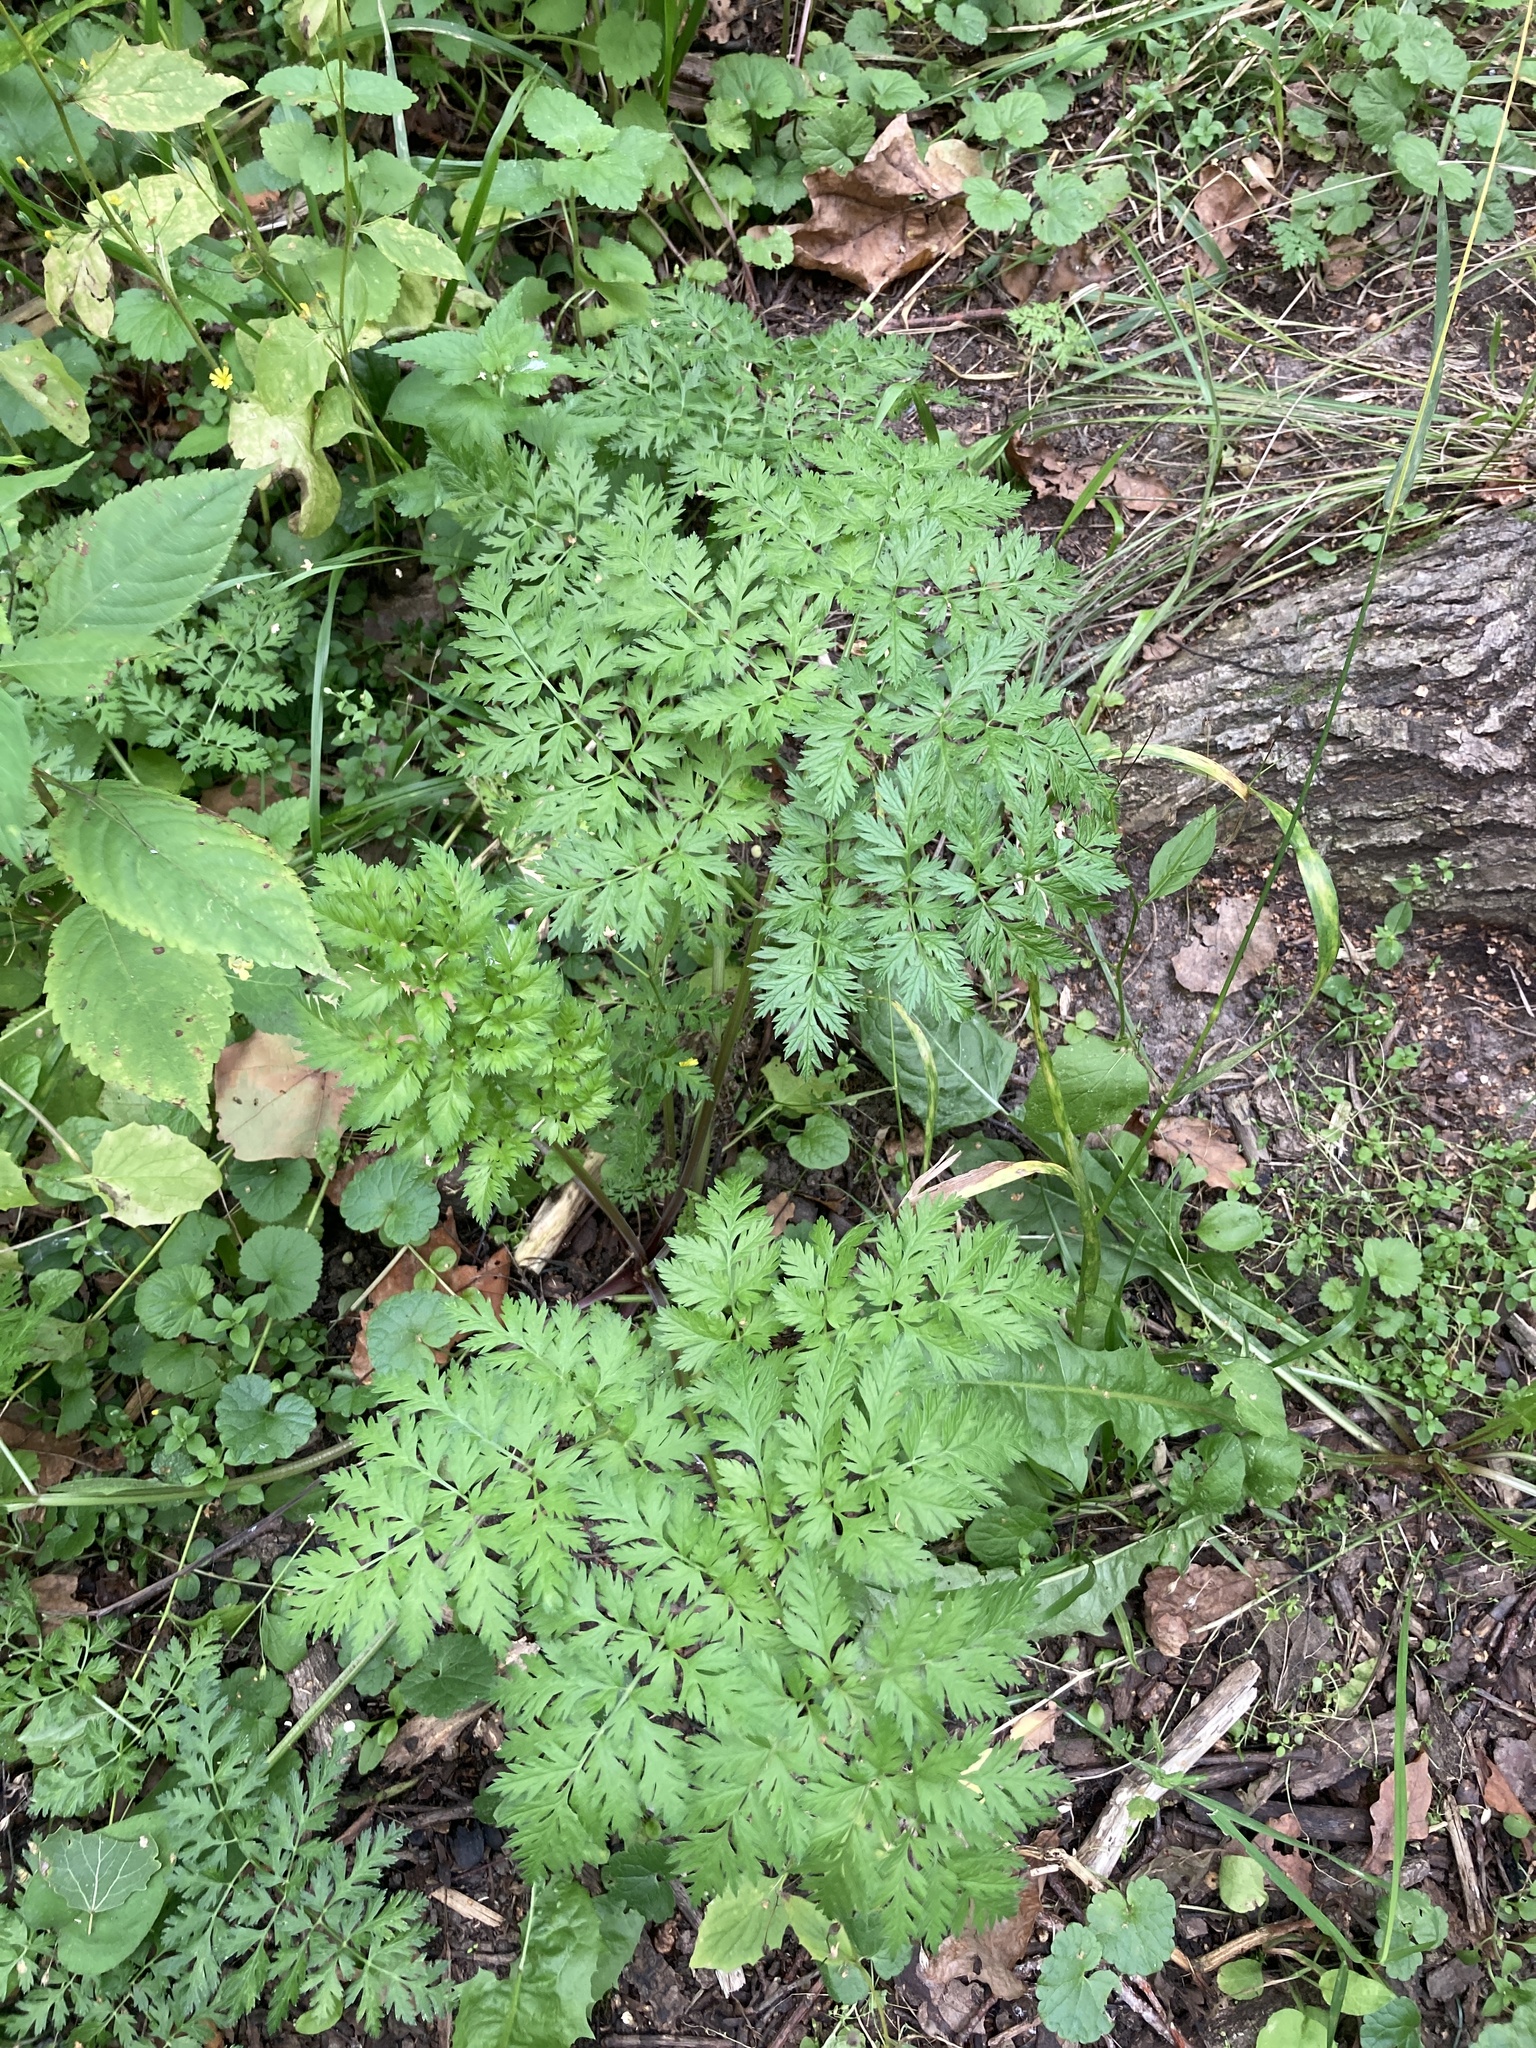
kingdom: Plantae
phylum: Tracheophyta
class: Magnoliopsida
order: Apiales
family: Apiaceae
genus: Anthriscus
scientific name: Anthriscus sylvestris
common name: Cow parsley
